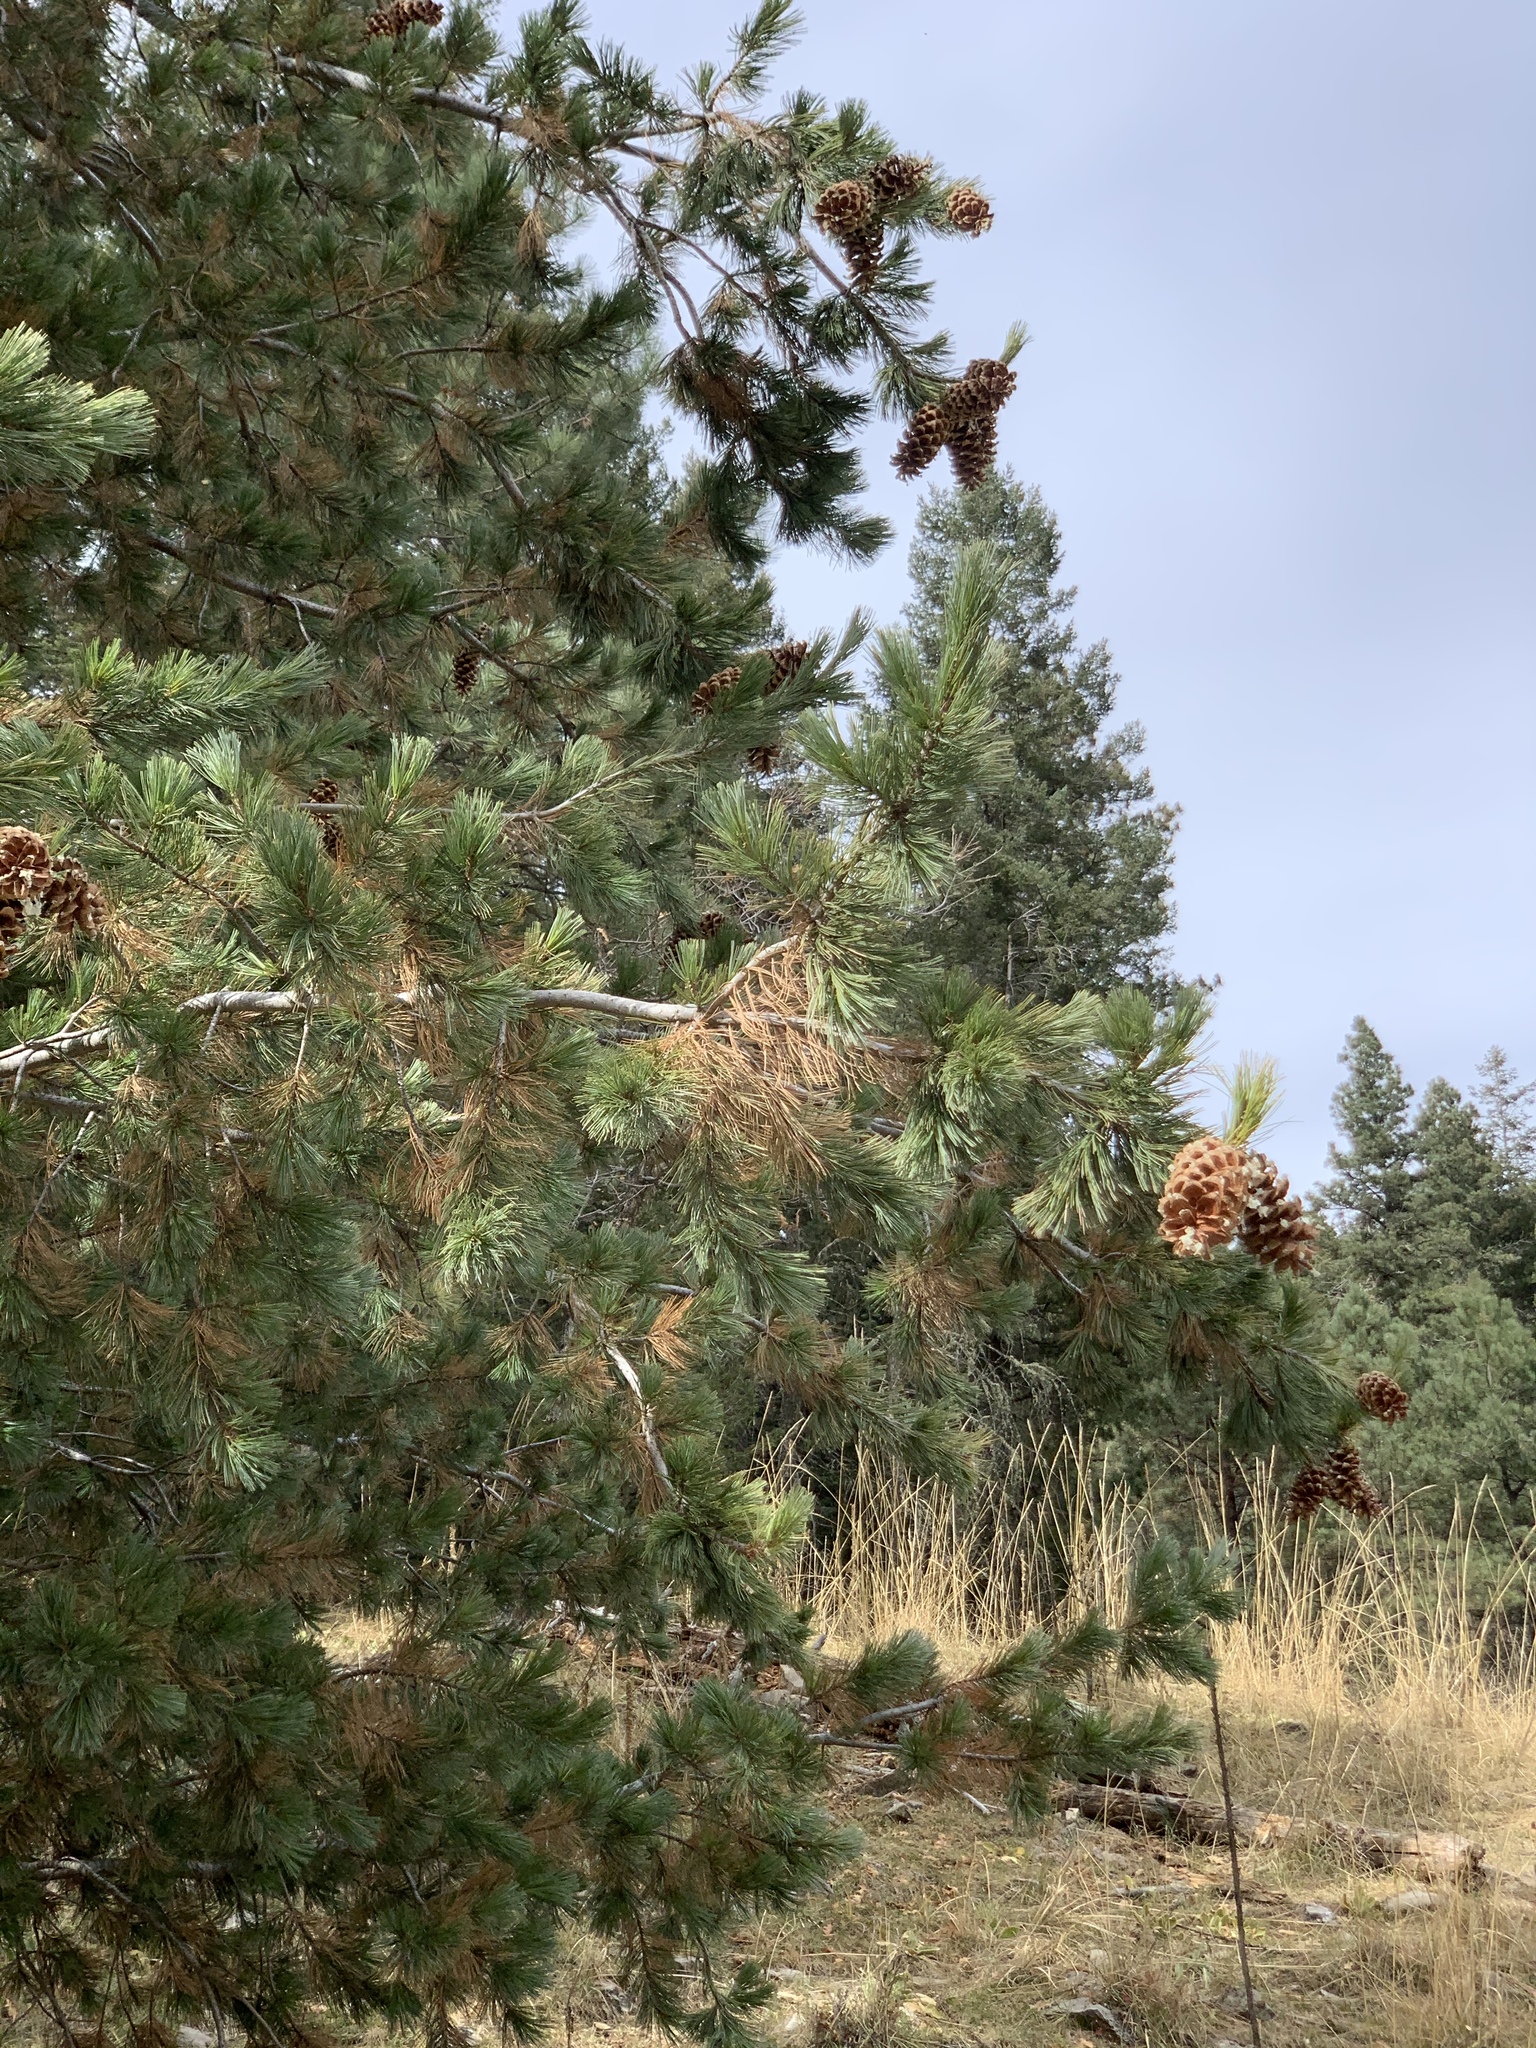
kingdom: Plantae
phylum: Tracheophyta
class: Pinopsida
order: Pinales
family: Pinaceae
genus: Pinus
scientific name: Pinus strobiformis
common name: Southwestern white pine
